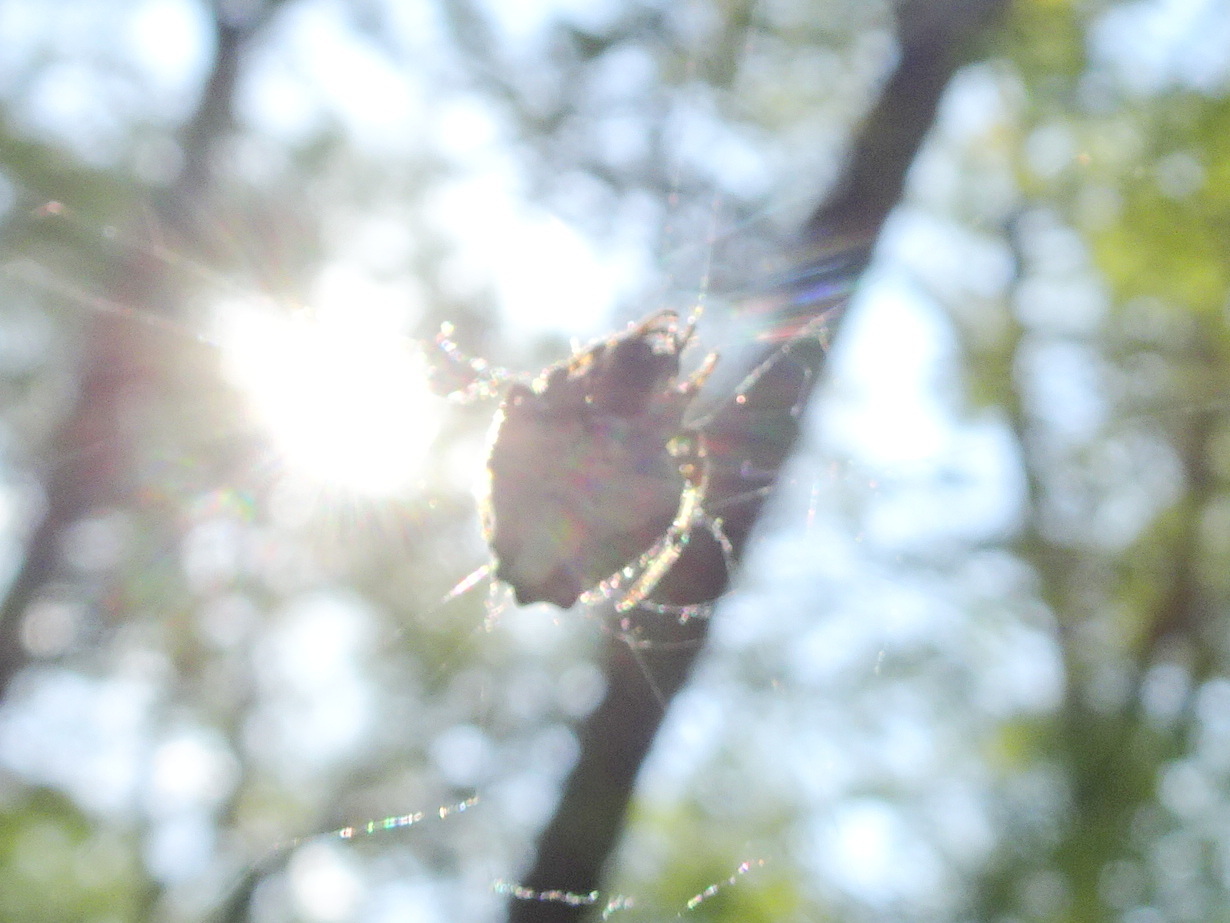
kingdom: Animalia
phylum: Arthropoda
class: Arachnida
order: Araneae
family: Araneidae
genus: Verrucosa
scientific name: Verrucosa arenata
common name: Orb weavers
